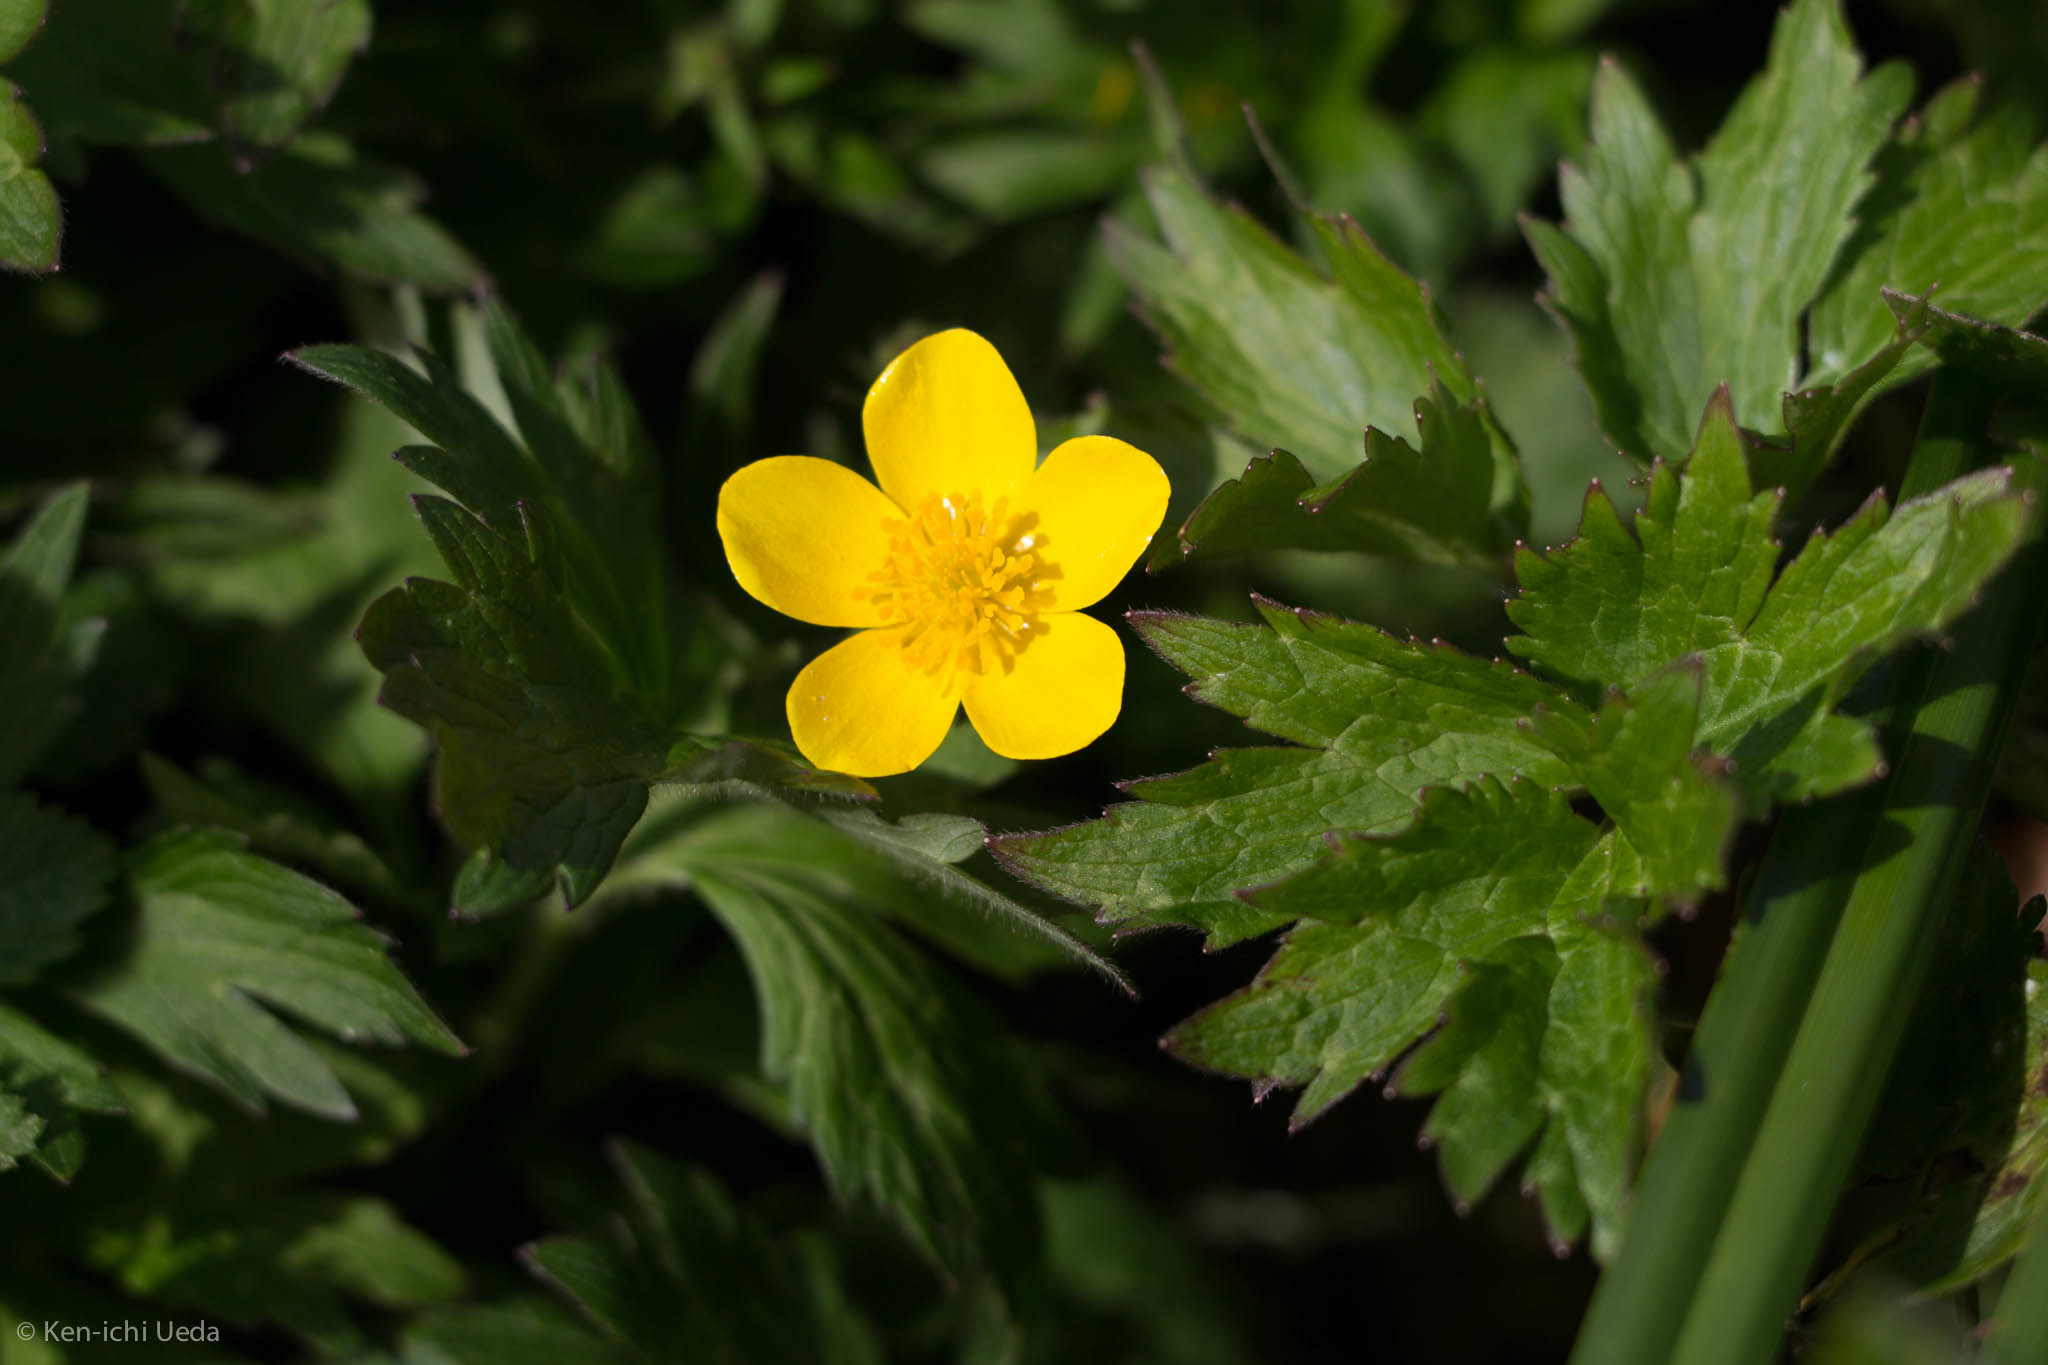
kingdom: Plantae
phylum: Tracheophyta
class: Magnoliopsida
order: Ranunculales
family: Ranunculaceae
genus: Ranunculus
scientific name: Ranunculus orthorhynchus
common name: Straight-beak buttercup
